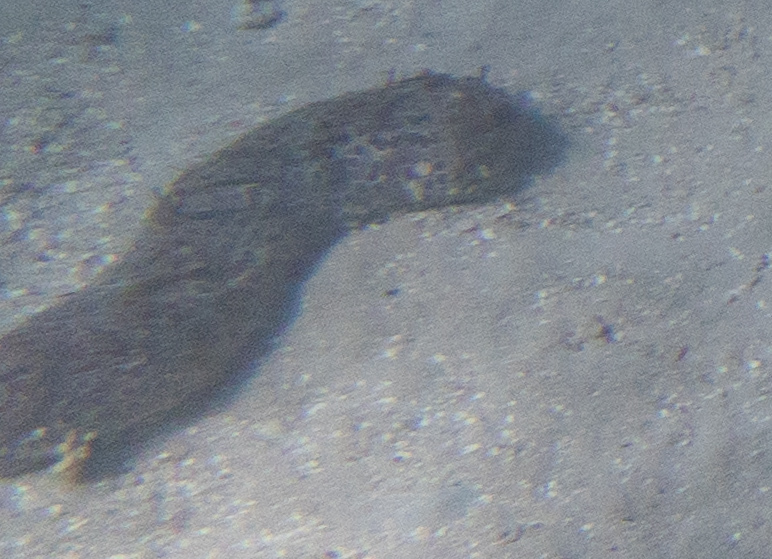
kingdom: Animalia
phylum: Echinodermata
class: Holothuroidea
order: Holothuriida
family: Holothuriidae
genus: Bohadschia
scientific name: Bohadschia argus
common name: Leopardfish
